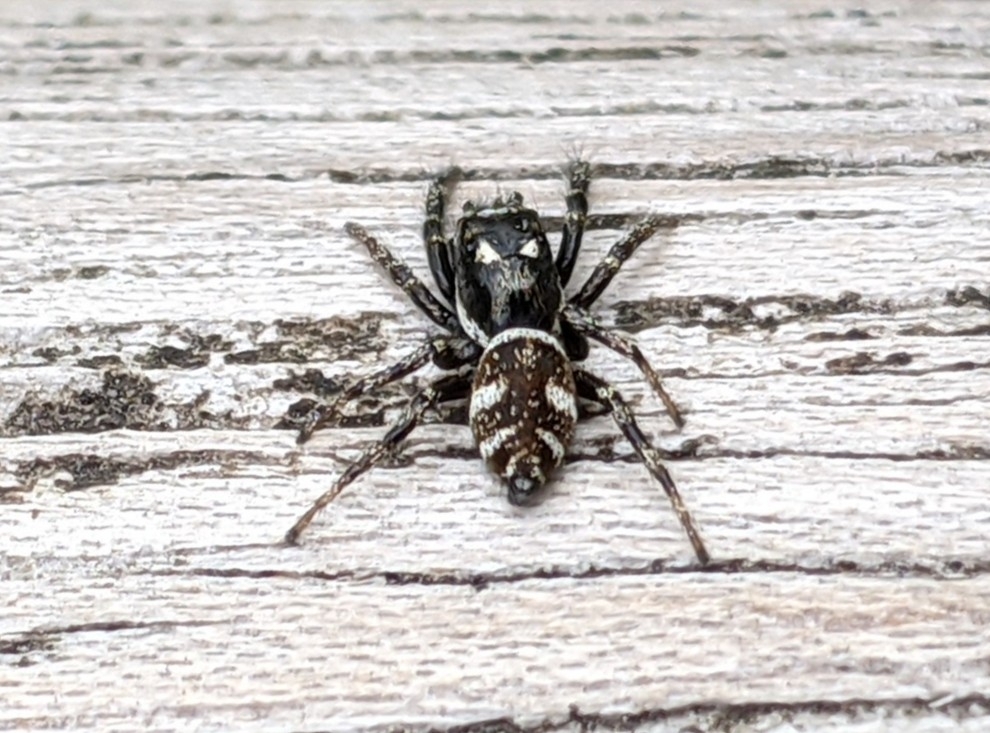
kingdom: Animalia
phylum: Arthropoda
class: Arachnida
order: Araneae
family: Salticidae
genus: Salticus
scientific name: Salticus scenicus
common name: Zebra jumper
